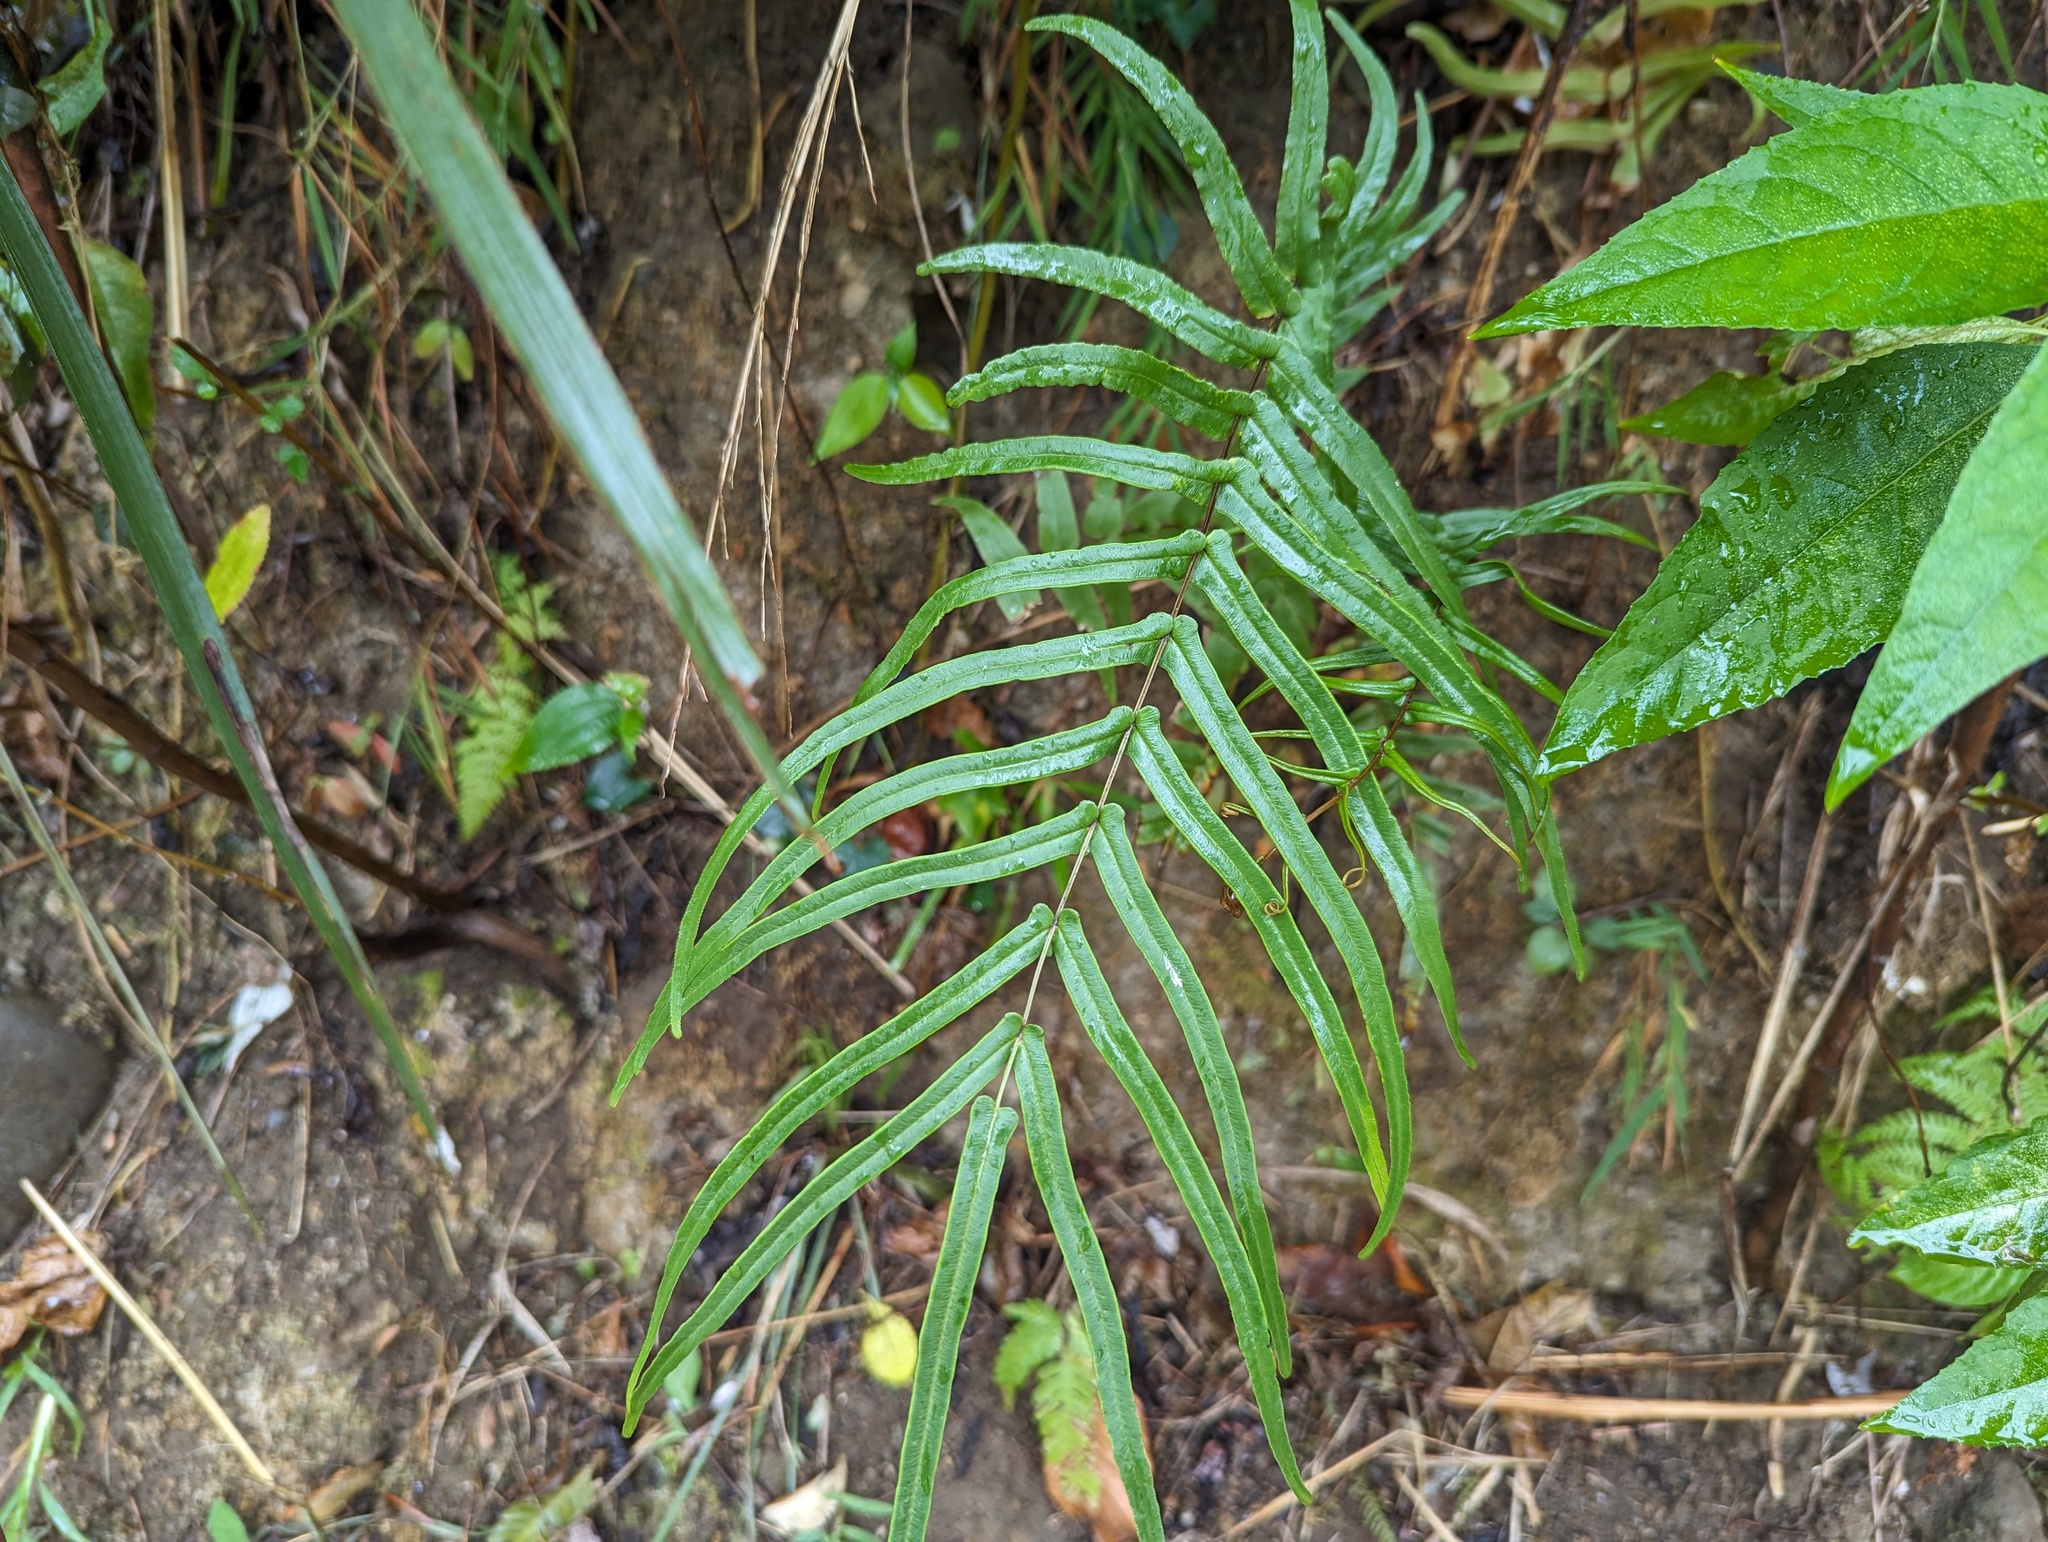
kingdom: Plantae
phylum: Tracheophyta
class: Polypodiopsida
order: Polypodiales
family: Pteridaceae
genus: Pteris
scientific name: Pteris vittata
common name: Ladder brake
